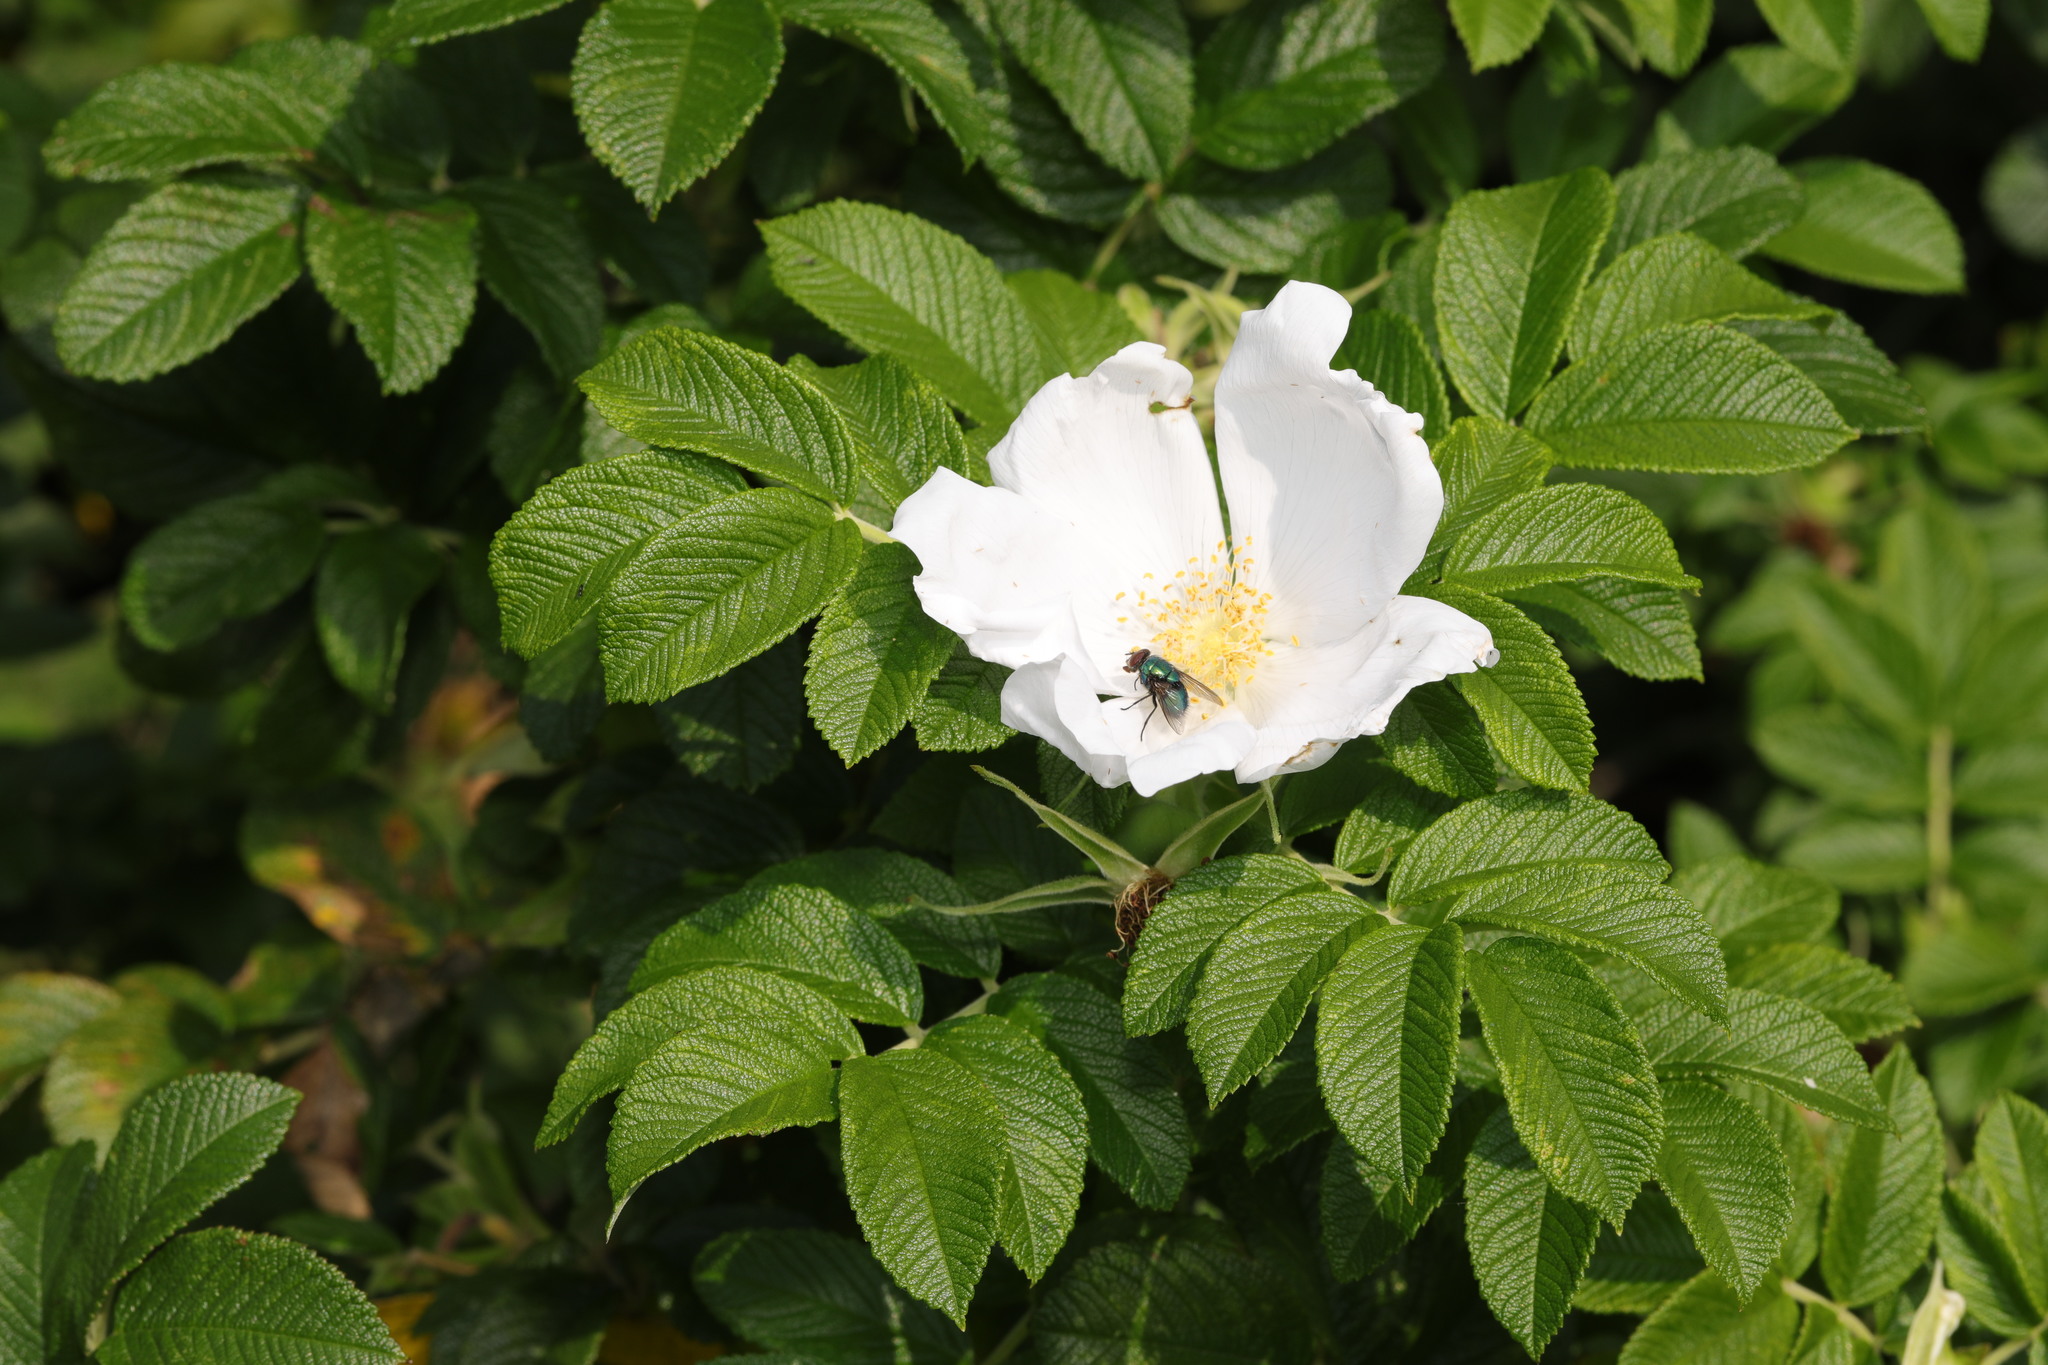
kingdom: Plantae
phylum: Tracheophyta
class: Magnoliopsida
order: Rosales
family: Rosaceae
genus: Rosa
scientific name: Rosa rugosa
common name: Japanese rose
